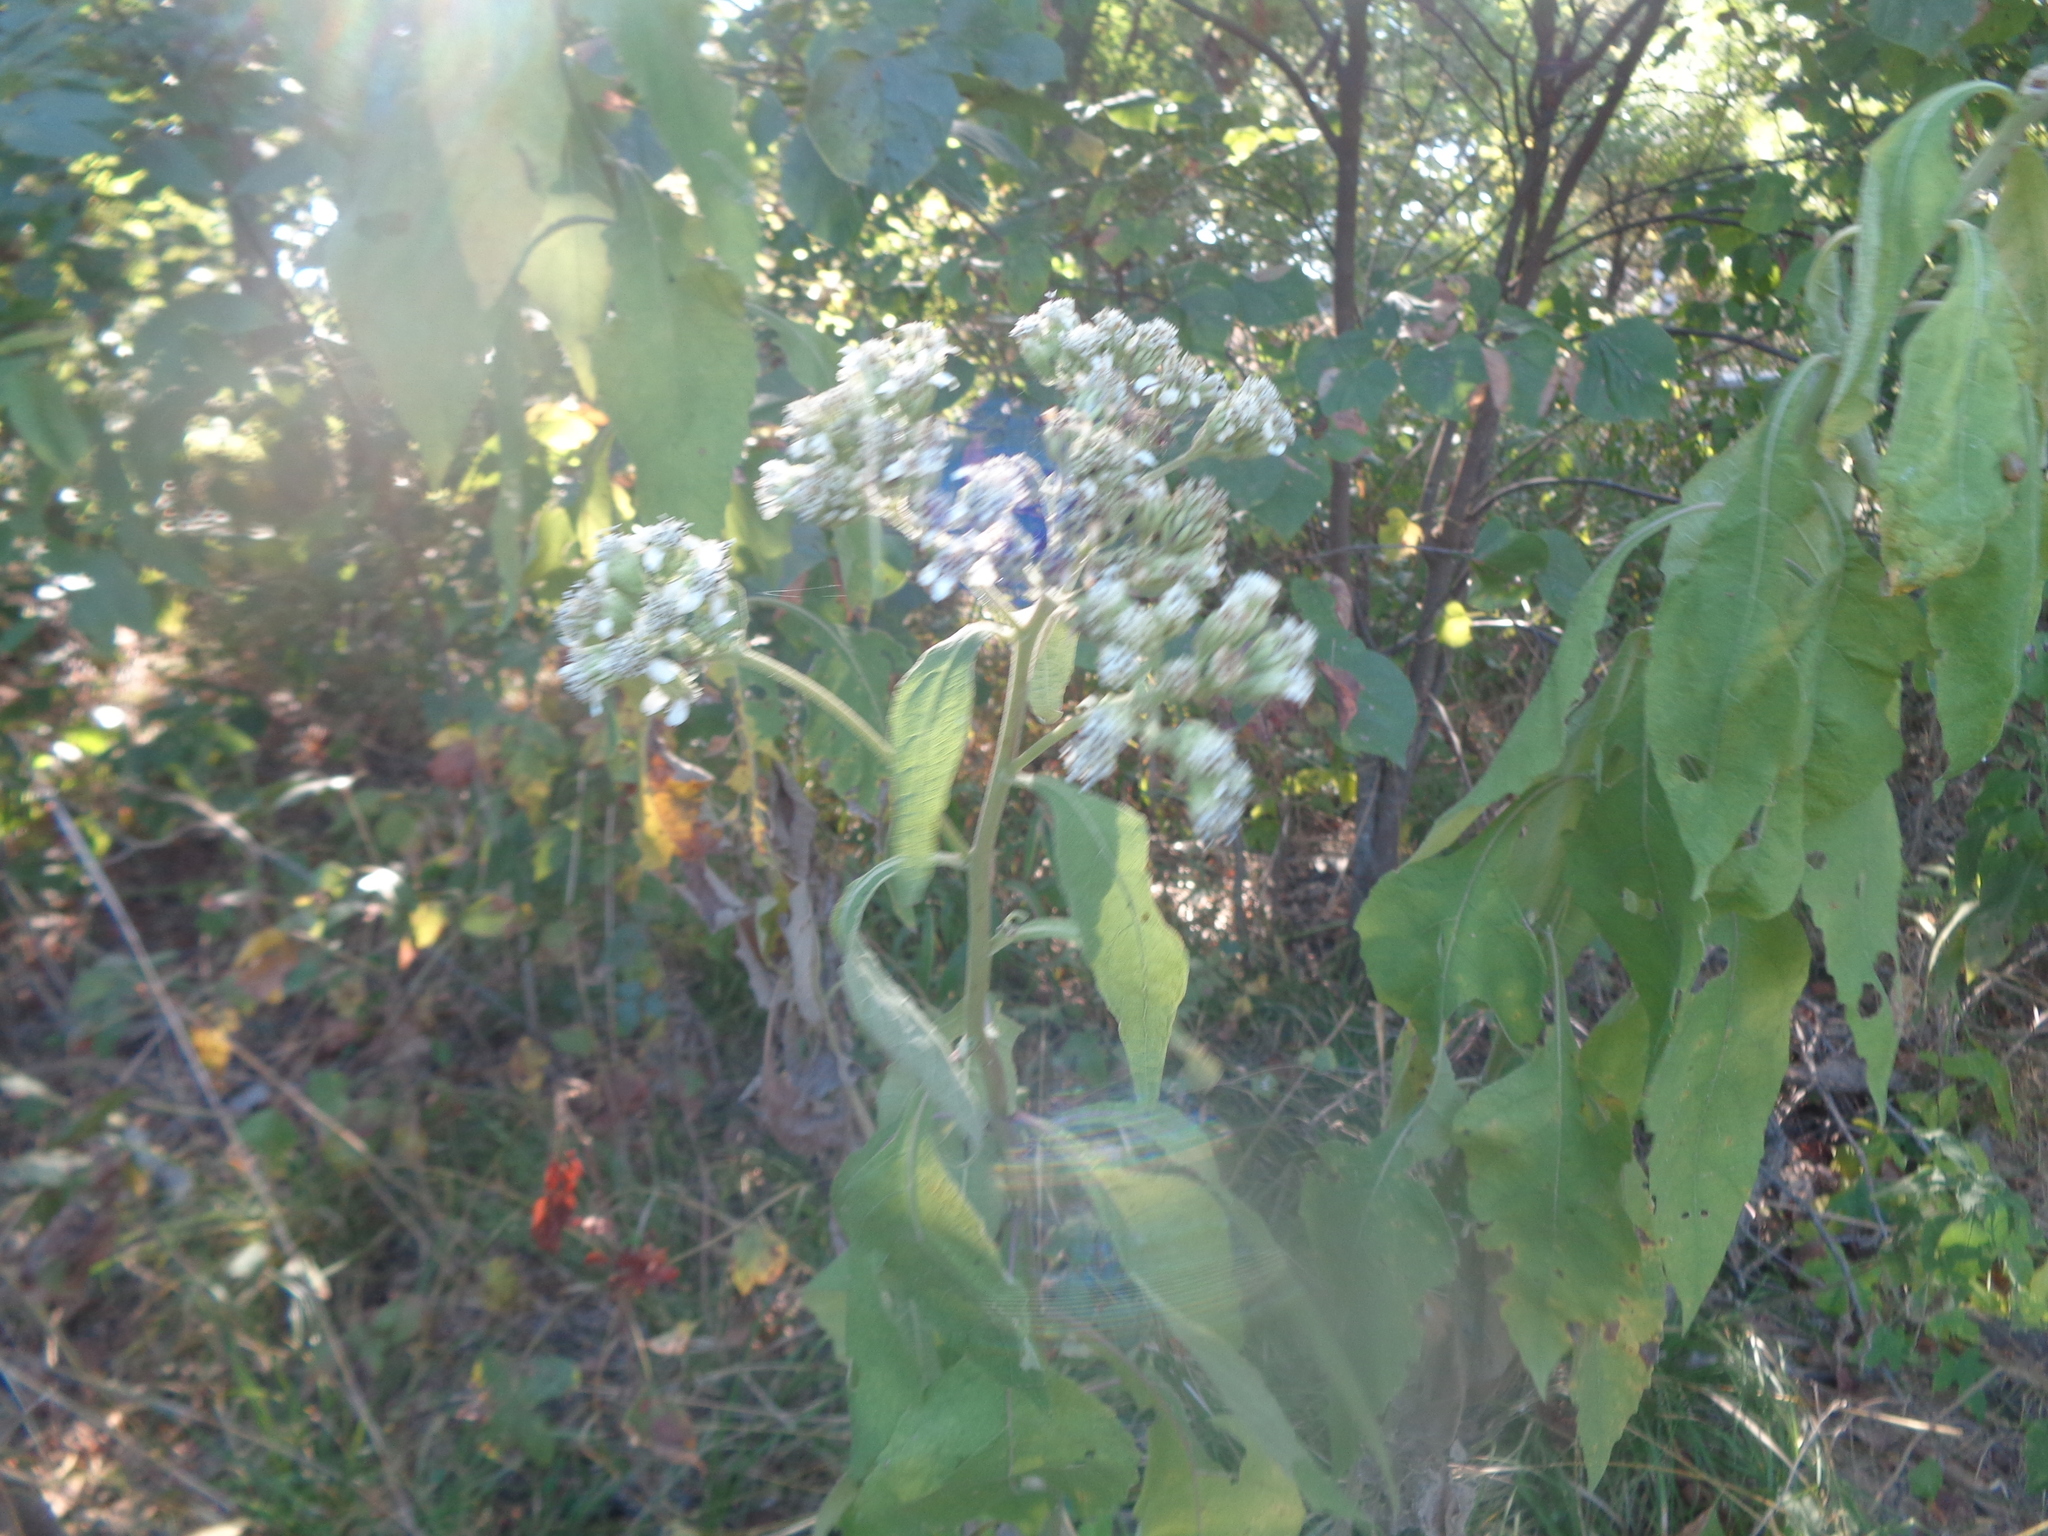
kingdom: Plantae
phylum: Tracheophyta
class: Magnoliopsida
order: Asterales
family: Asteraceae
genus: Verbesina
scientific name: Verbesina virginica
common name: Frostweed
